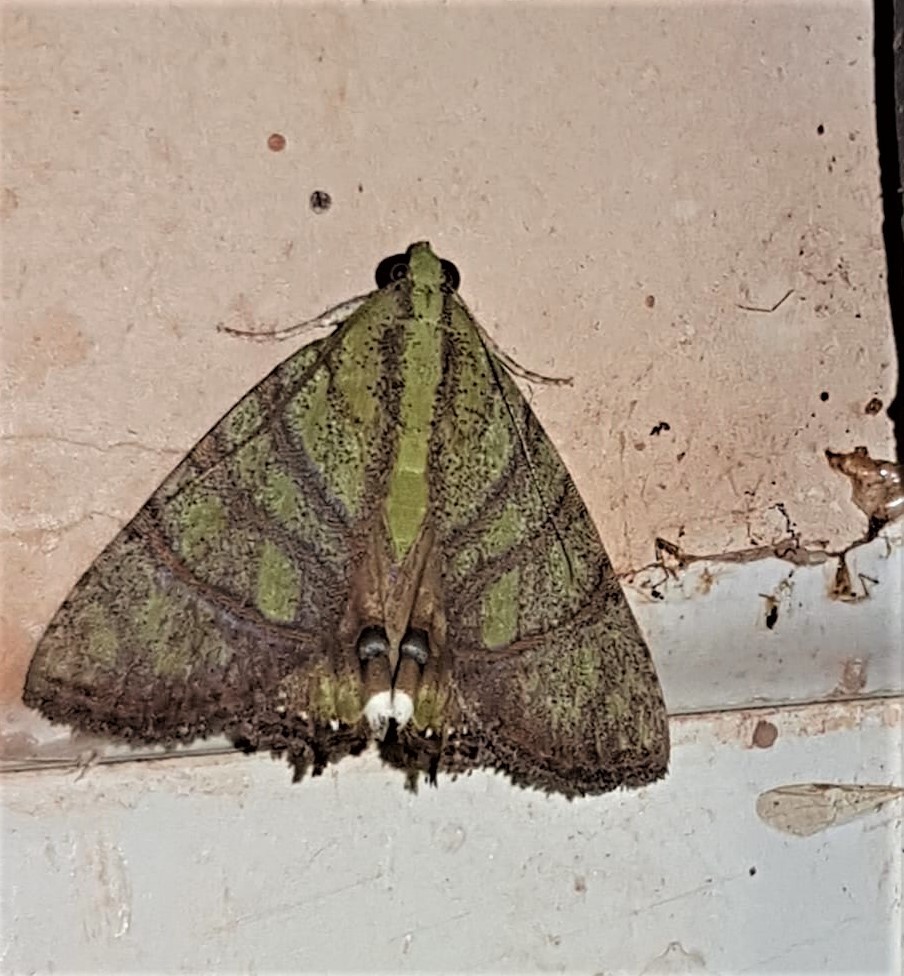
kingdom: Animalia
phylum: Arthropoda
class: Insecta
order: Lepidoptera
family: Erebidae
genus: Eulepidotis
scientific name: Eulepidotis reticulata
